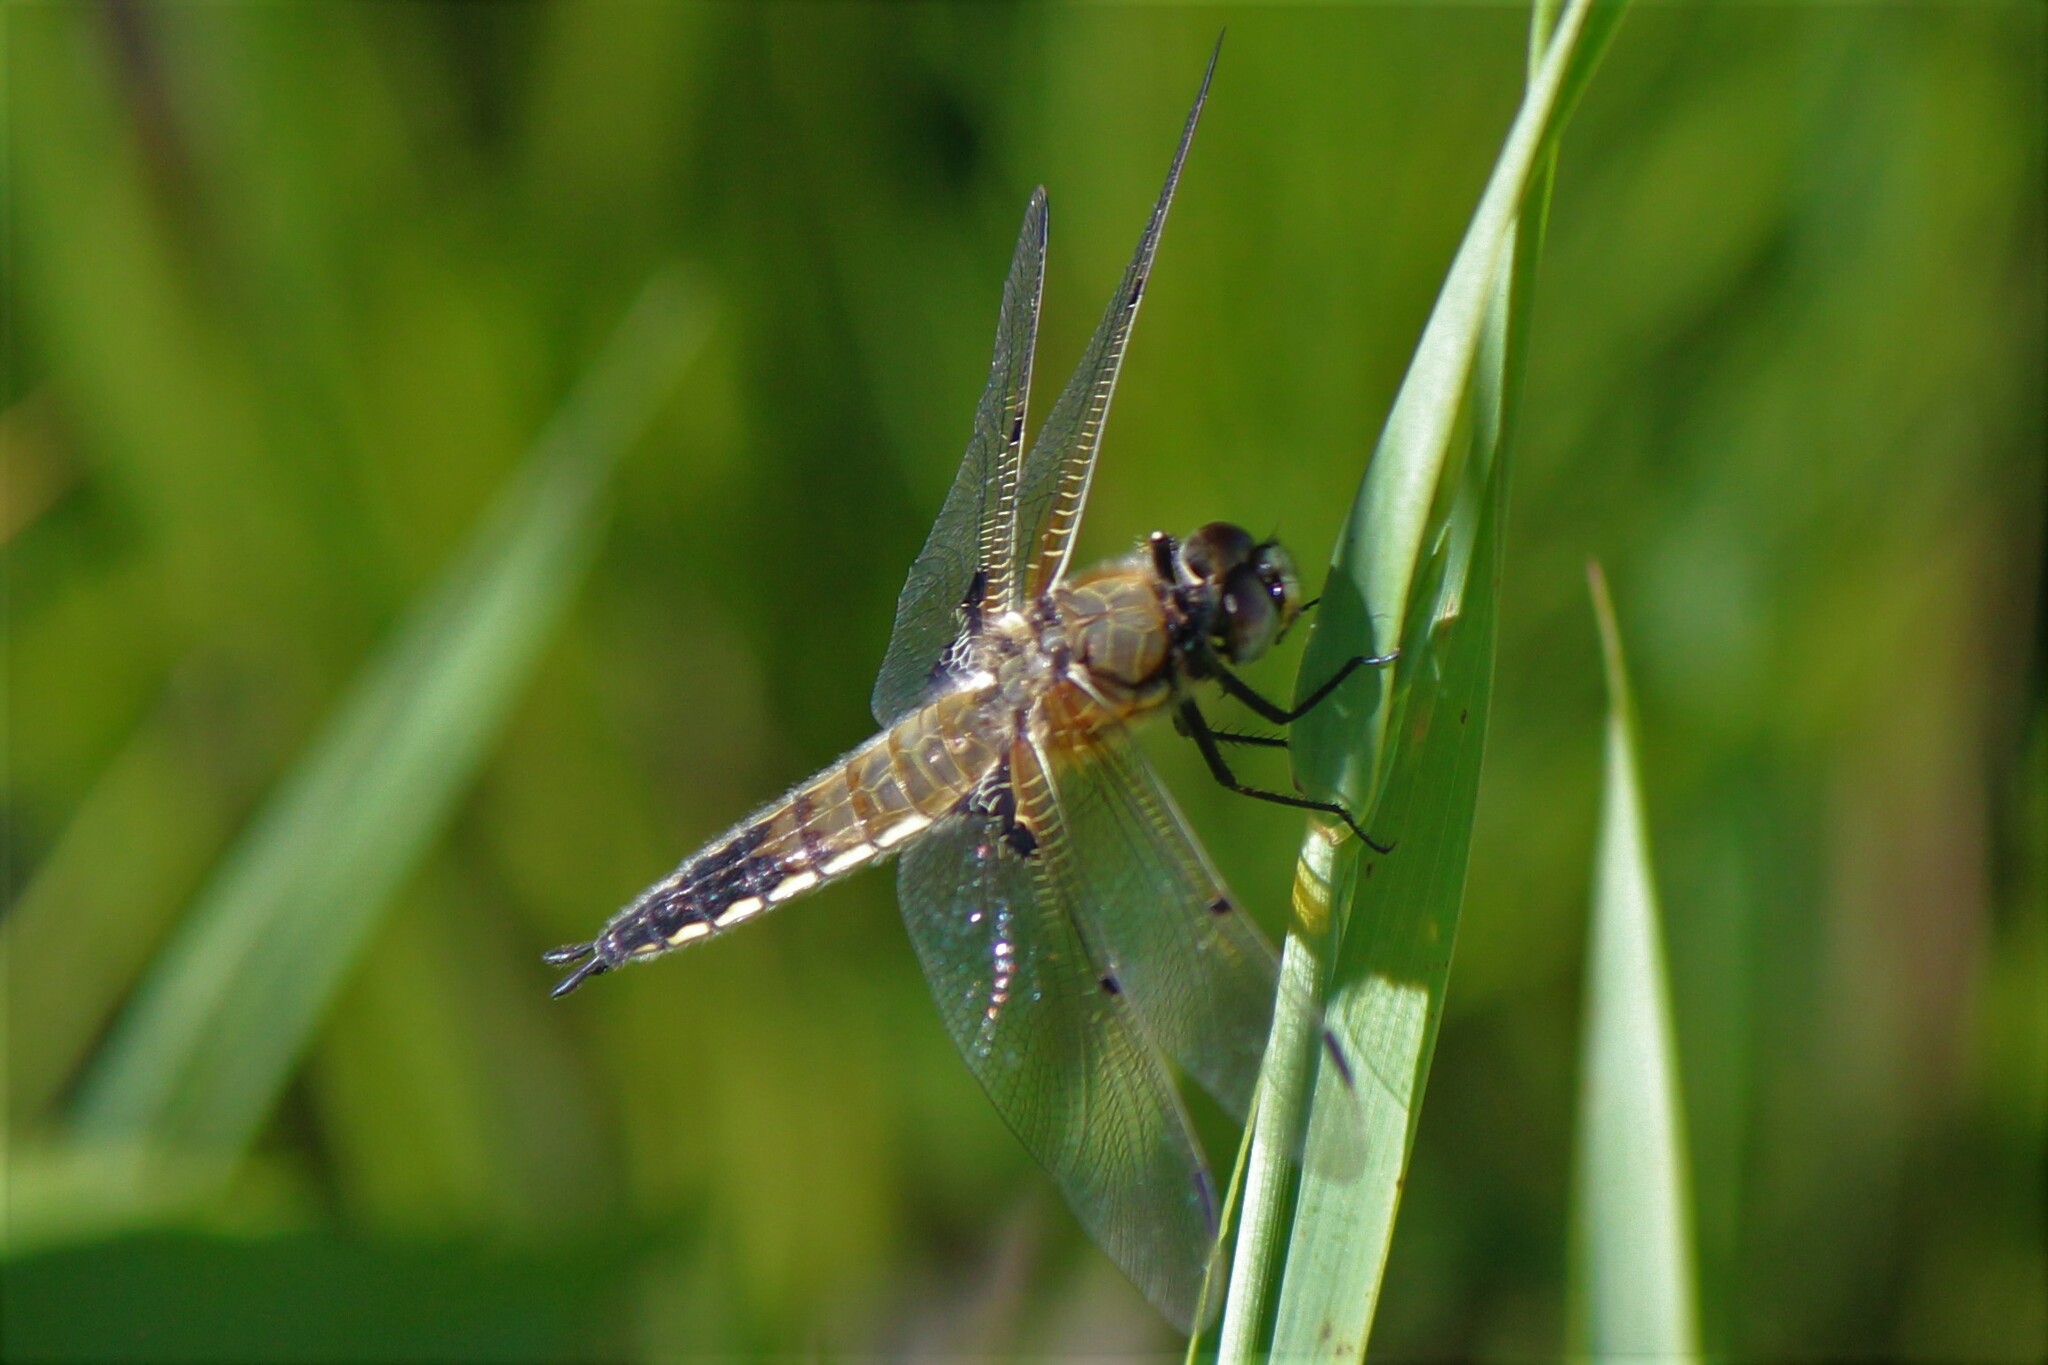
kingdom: Animalia
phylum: Arthropoda
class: Insecta
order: Odonata
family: Libellulidae
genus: Libellula
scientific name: Libellula quadrimaculata
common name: Four-spotted chaser
